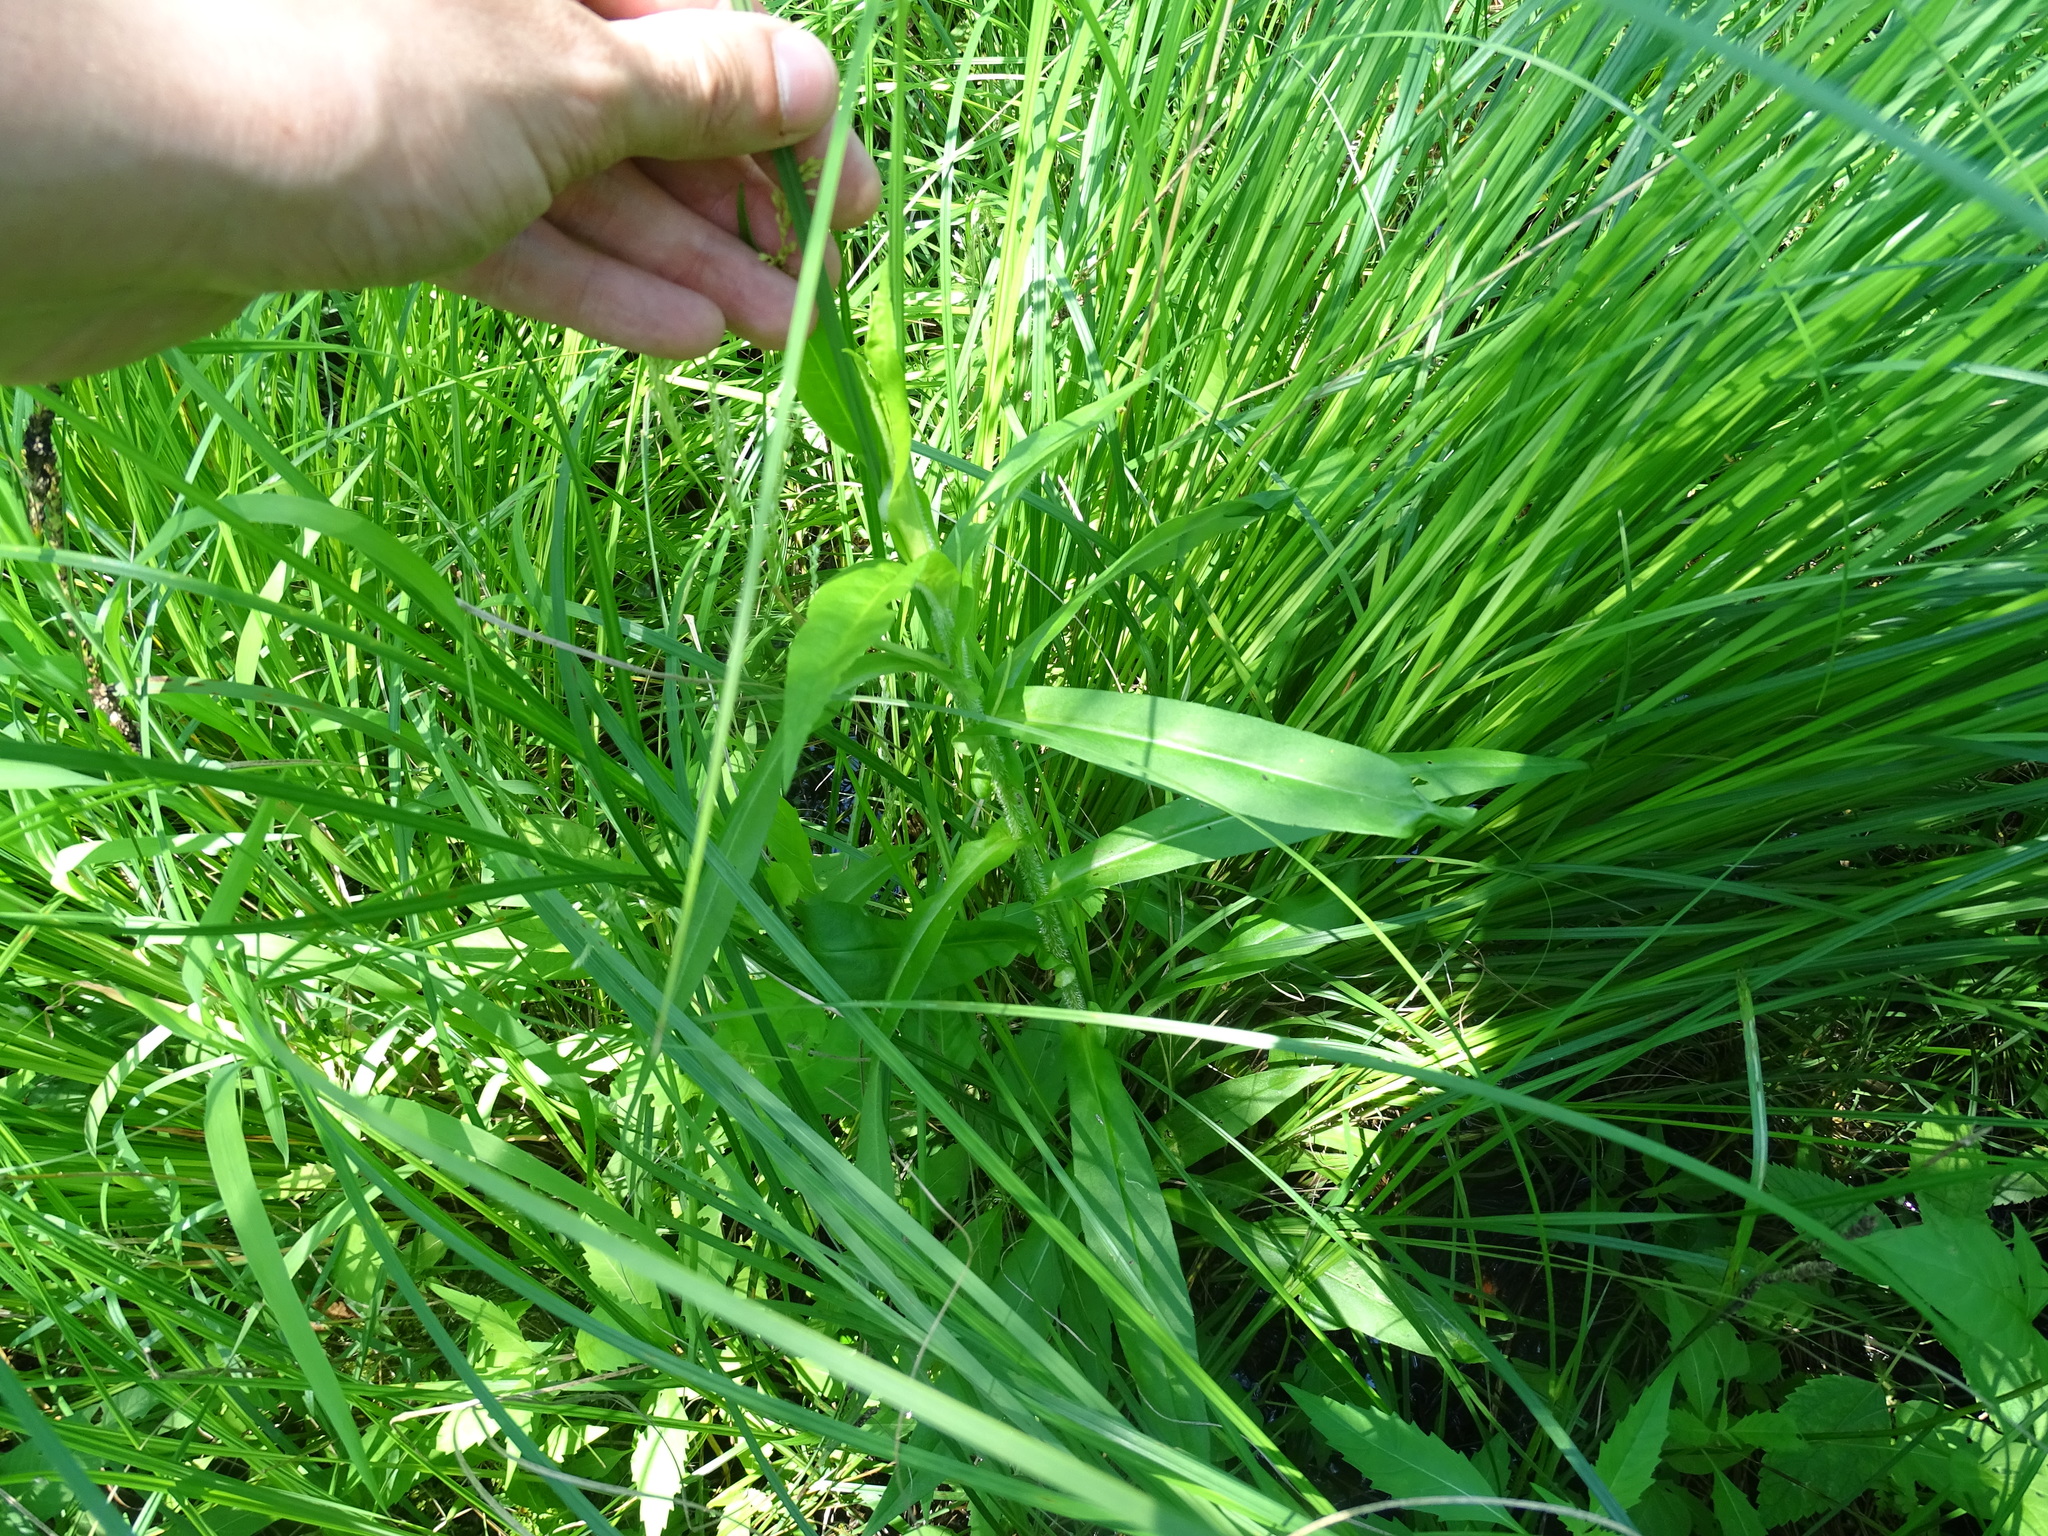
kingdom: Plantae
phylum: Tracheophyta
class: Magnoliopsida
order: Asterales
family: Asteraceae
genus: Symphyotrichum
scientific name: Symphyotrichum puniceum
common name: Bog aster
